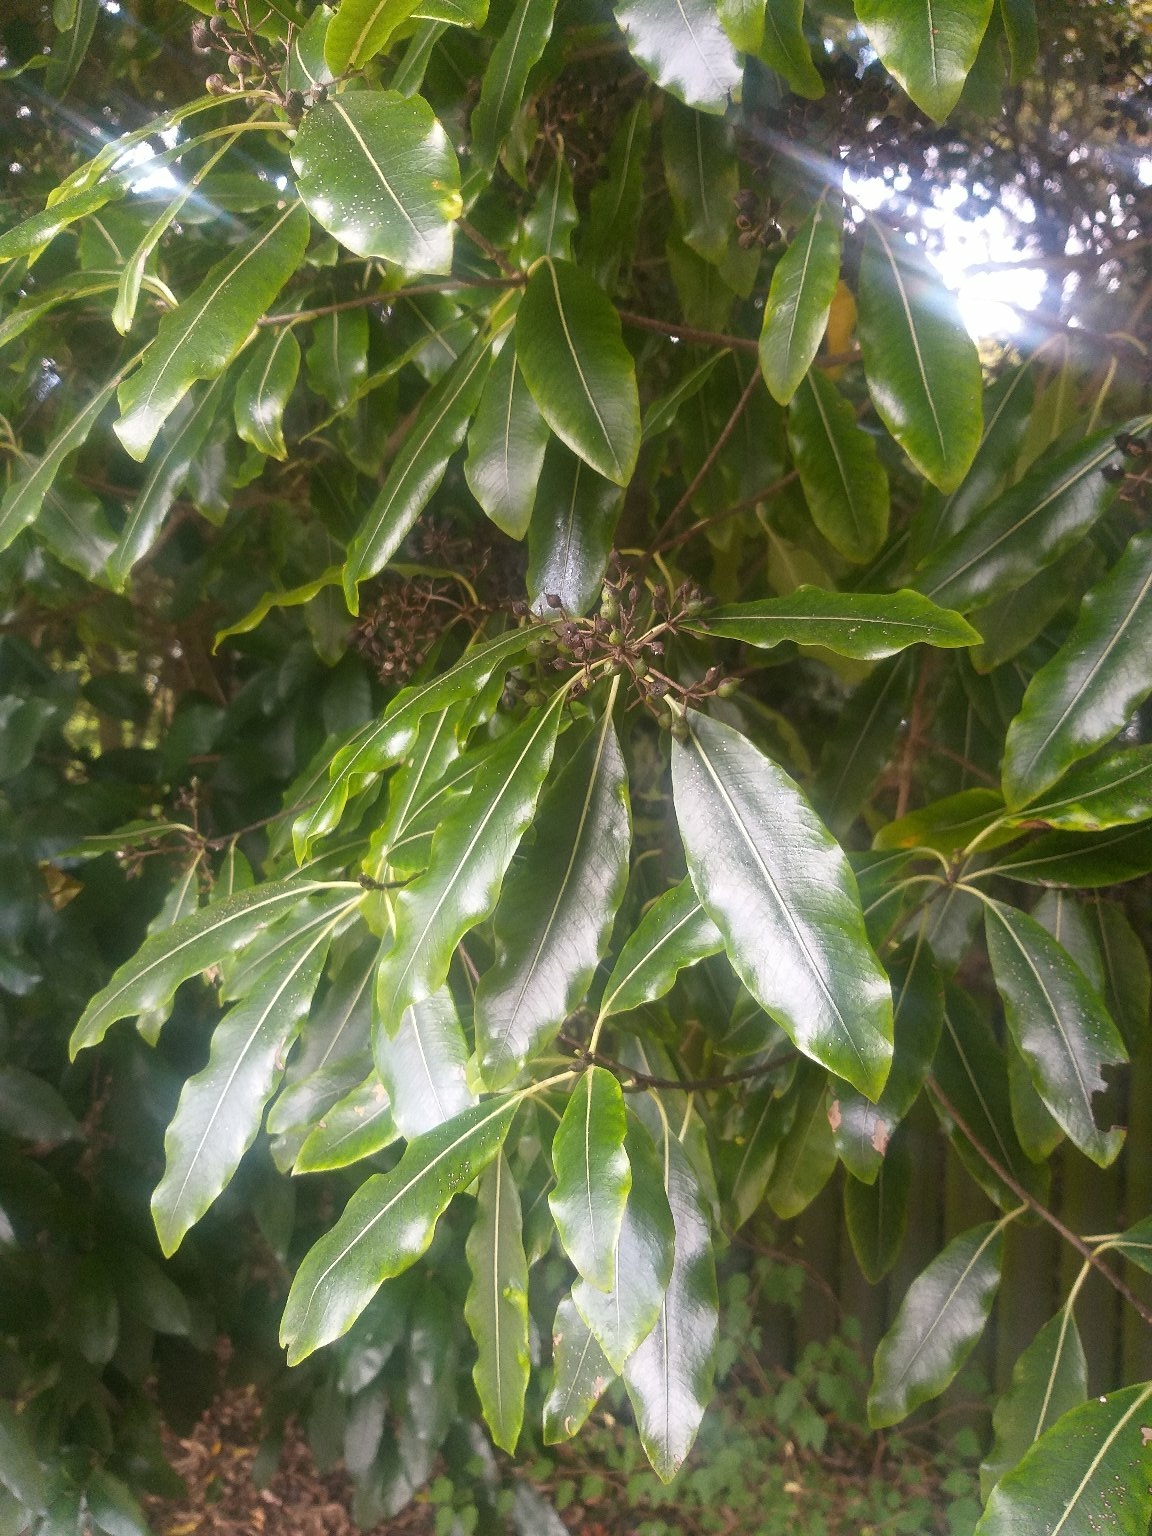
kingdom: Plantae
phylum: Tracheophyta
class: Magnoliopsida
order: Apiales
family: Pittosporaceae
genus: Pittosporum
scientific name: Pittosporum eugenioides
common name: Lemonwood
